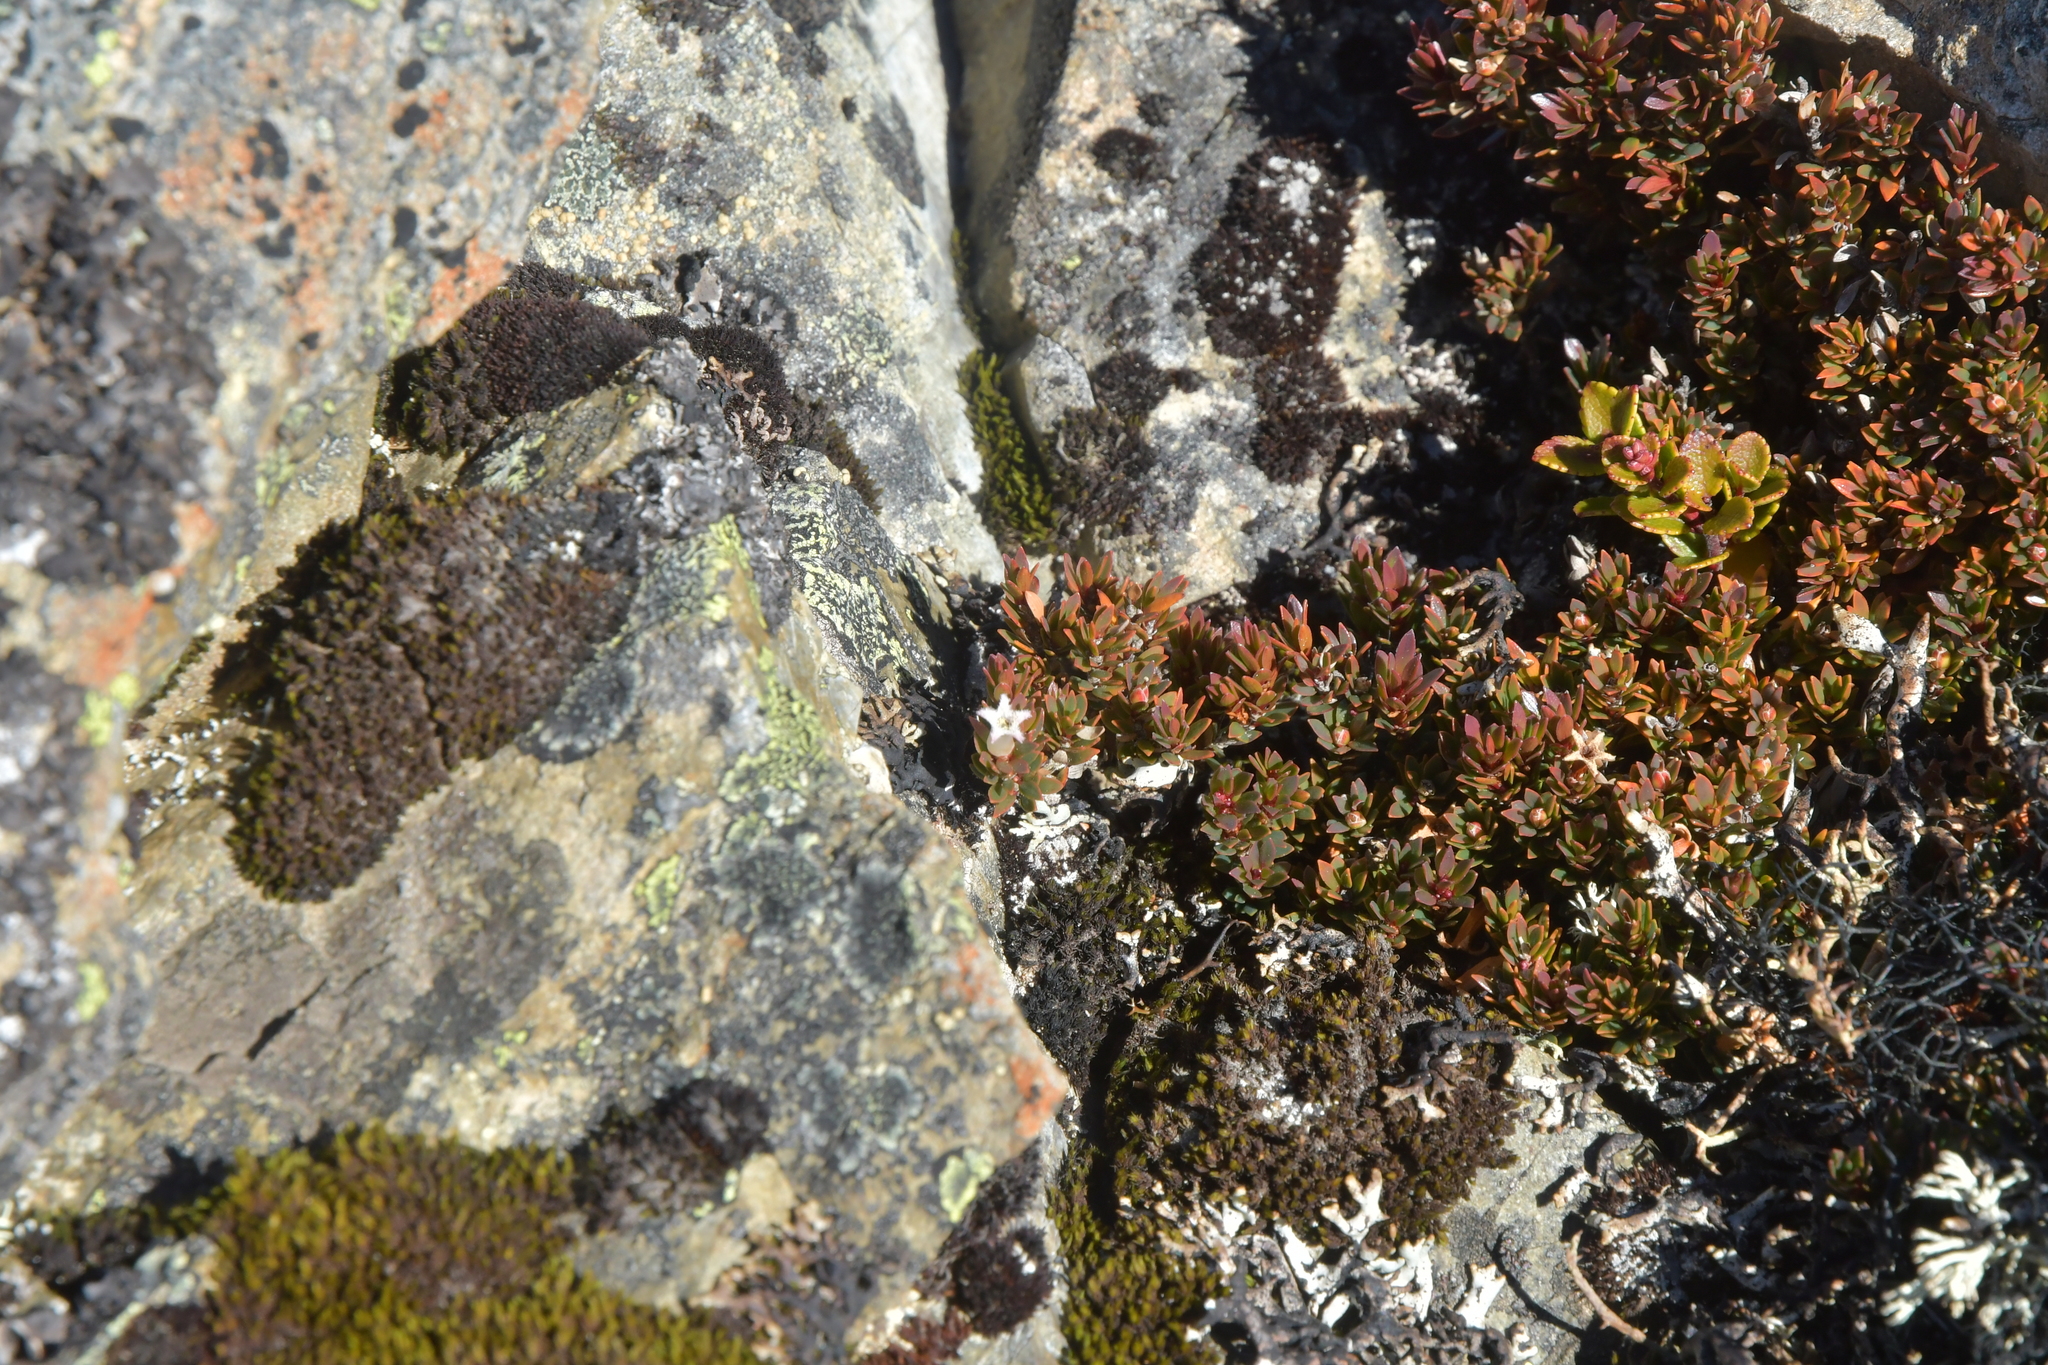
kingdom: Plantae
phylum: Tracheophyta
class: Magnoliopsida
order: Ericales
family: Ericaceae
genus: Pentachondra
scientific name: Pentachondra pumila
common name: Carpet-heath
